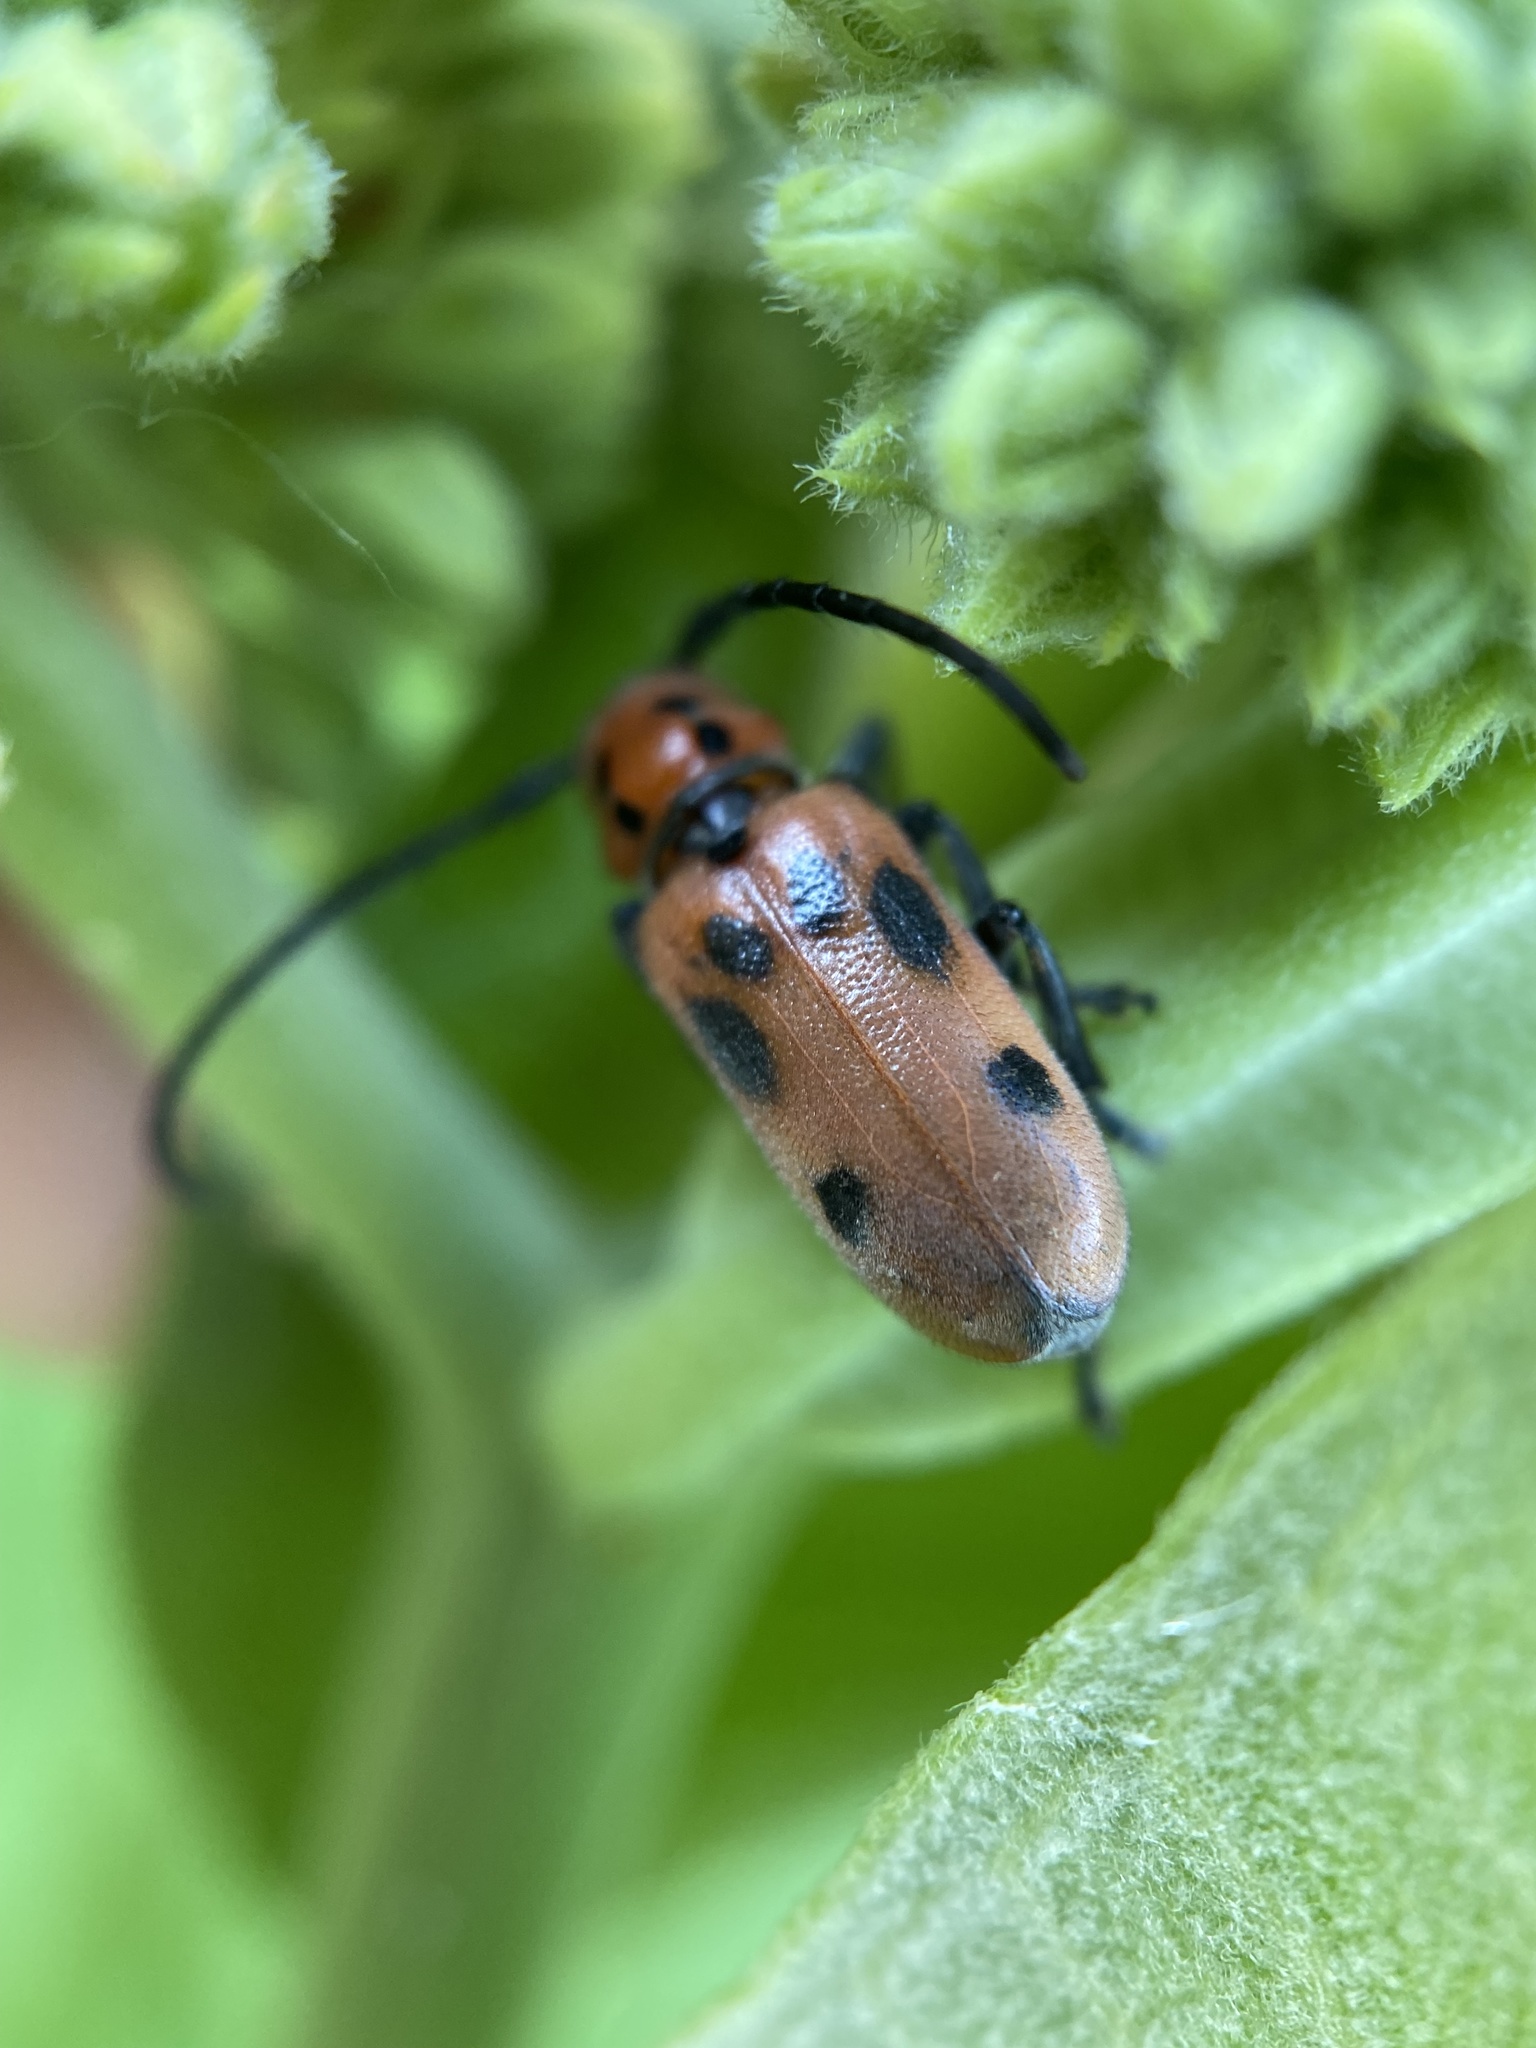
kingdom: Animalia
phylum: Arthropoda
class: Insecta
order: Coleoptera
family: Cerambycidae
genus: Tetraopes
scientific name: Tetraopes tetrophthalmus
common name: Red milkweed beetle
